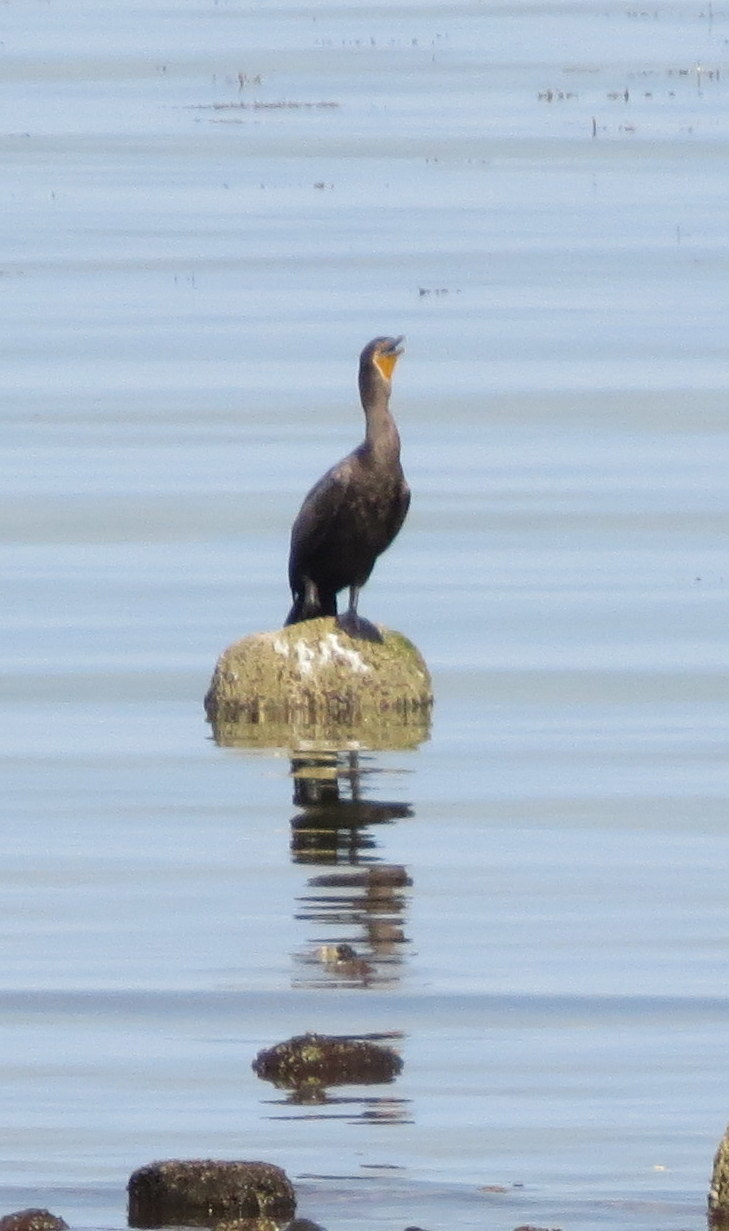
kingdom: Animalia
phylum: Chordata
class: Aves
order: Suliformes
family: Phalacrocoracidae
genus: Phalacrocorax
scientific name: Phalacrocorax auritus
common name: Double-crested cormorant
